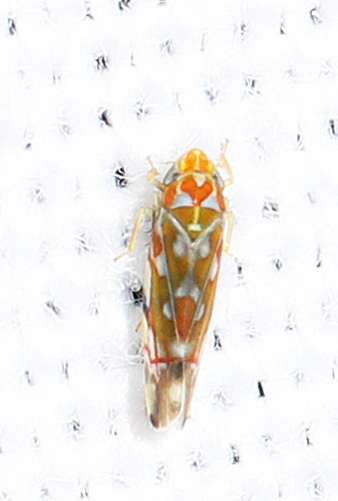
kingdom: Animalia
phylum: Arthropoda
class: Insecta
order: Hemiptera
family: Cicadellidae
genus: Erythroneura
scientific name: Erythroneura rubra
